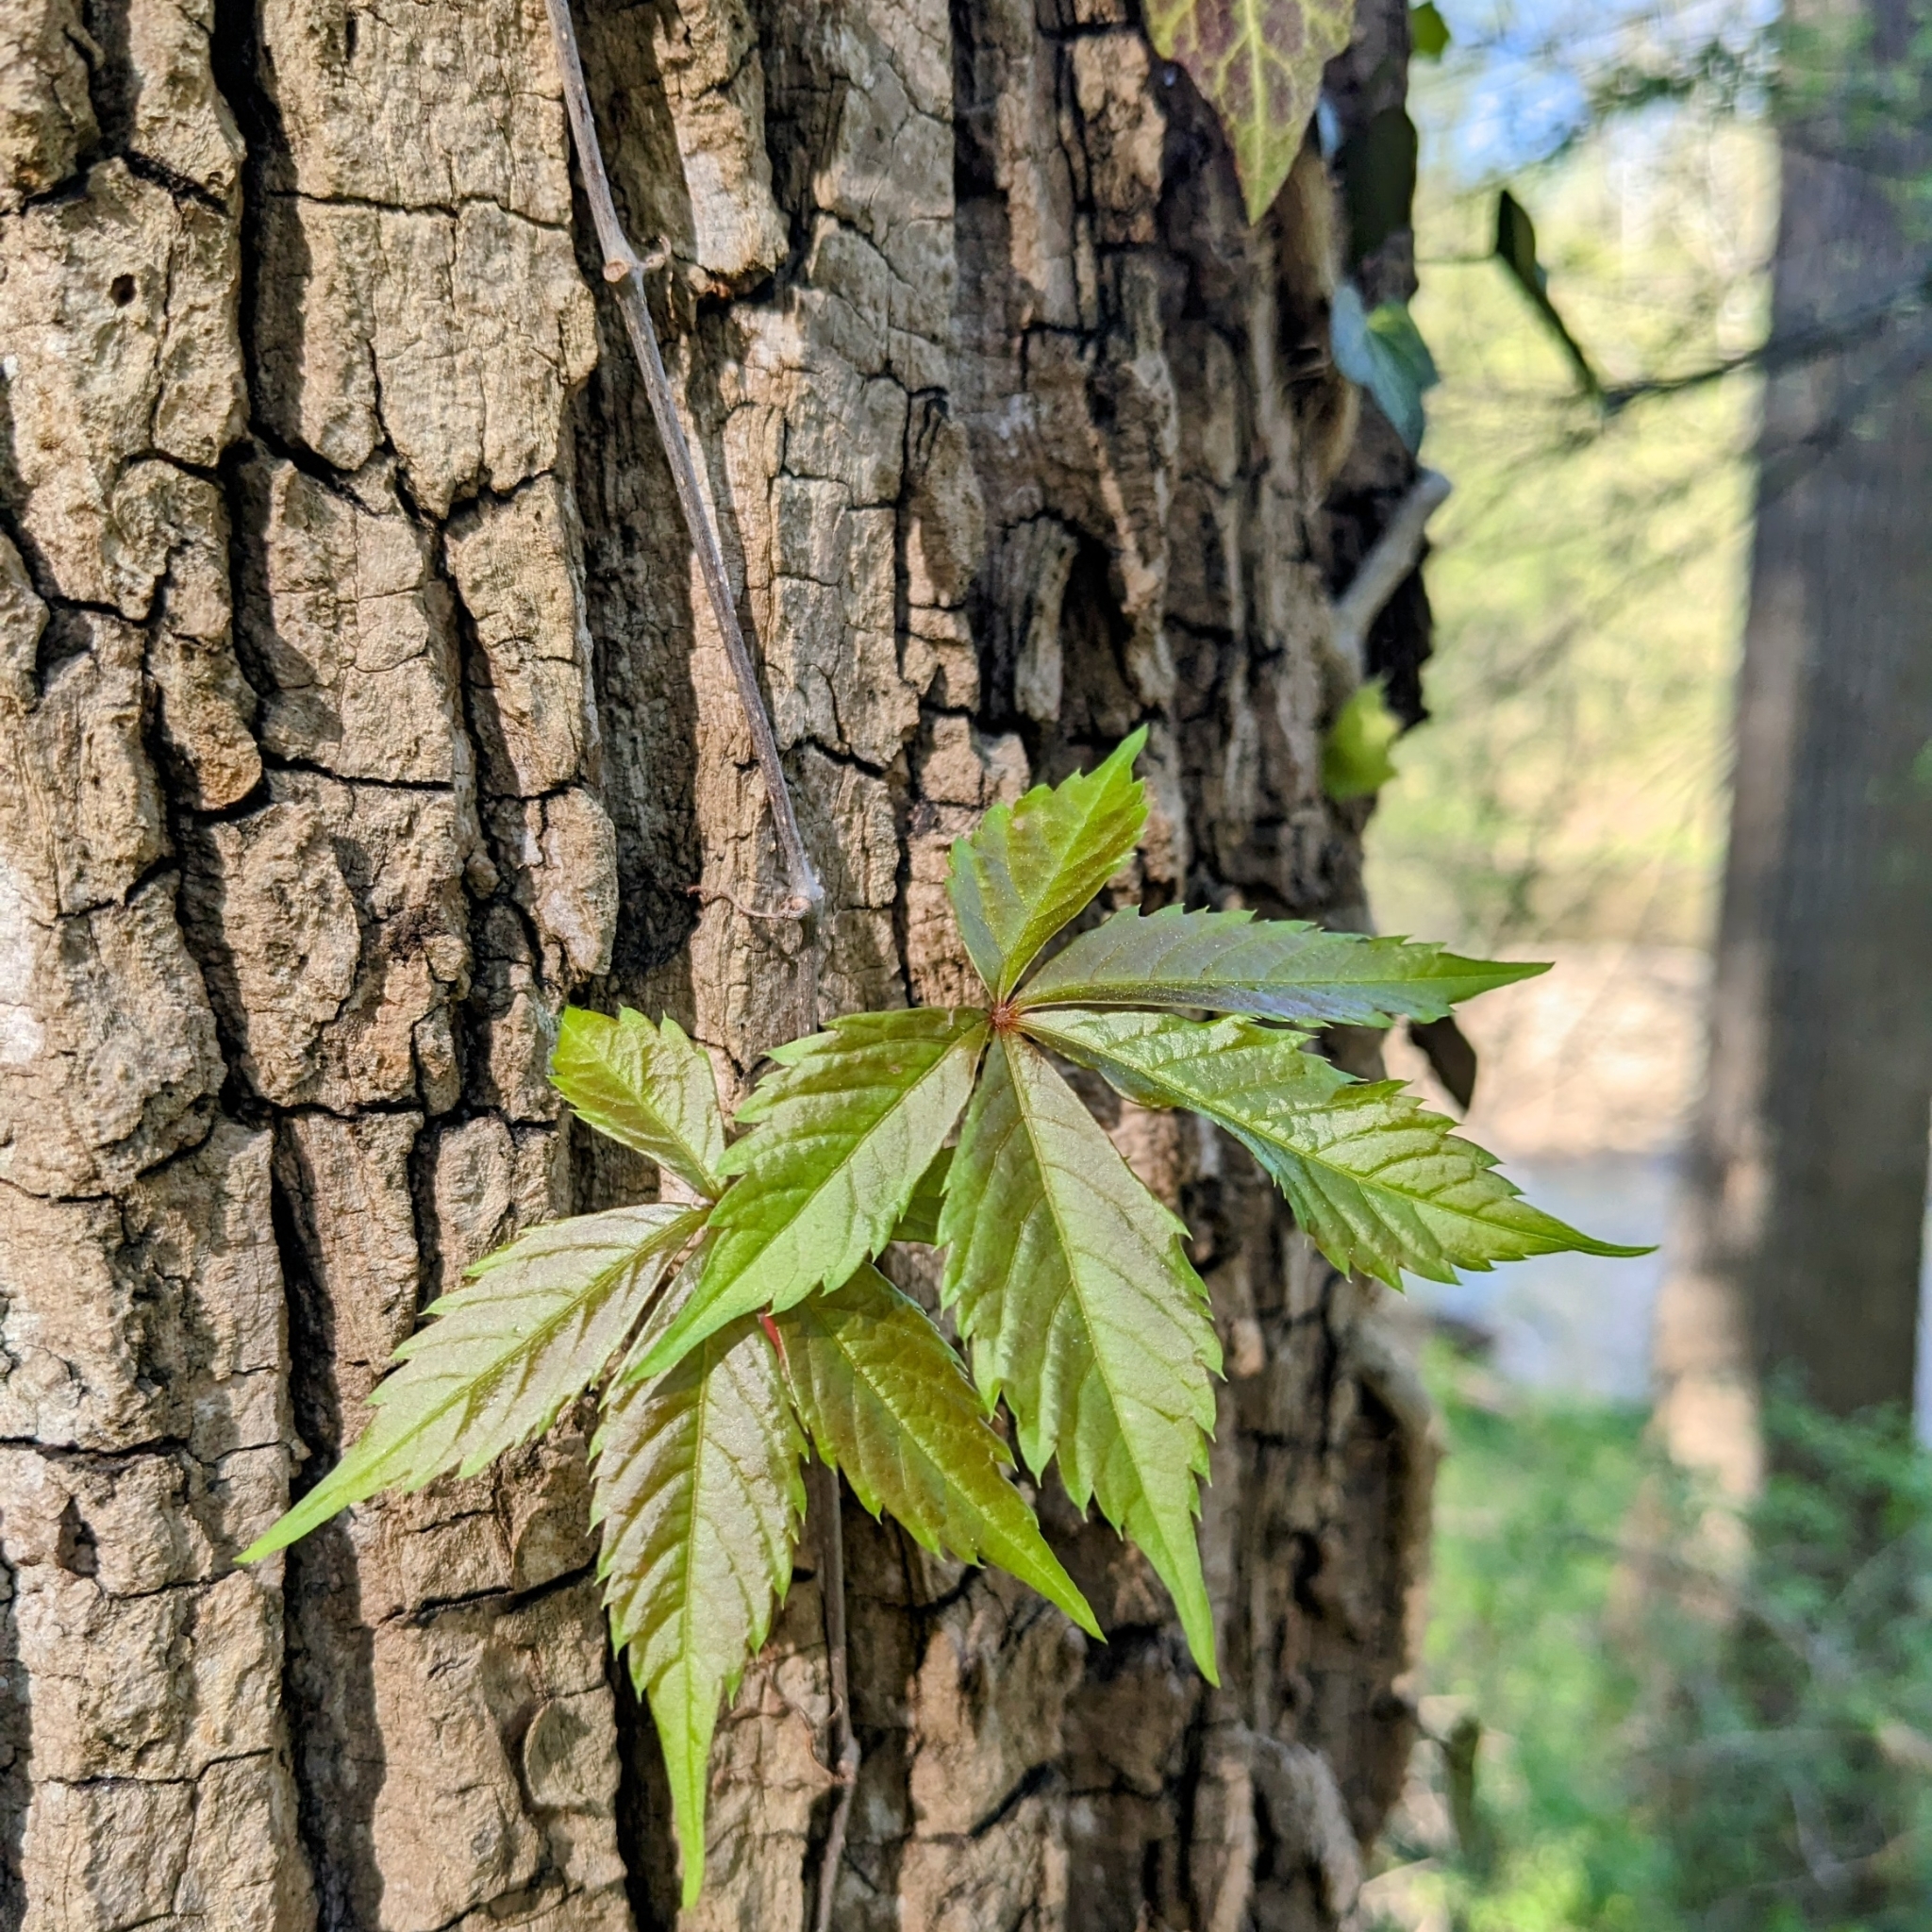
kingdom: Plantae
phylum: Tracheophyta
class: Magnoliopsida
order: Vitales
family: Vitaceae
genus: Parthenocissus
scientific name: Parthenocissus quinquefolia
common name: Virginia-creeper
